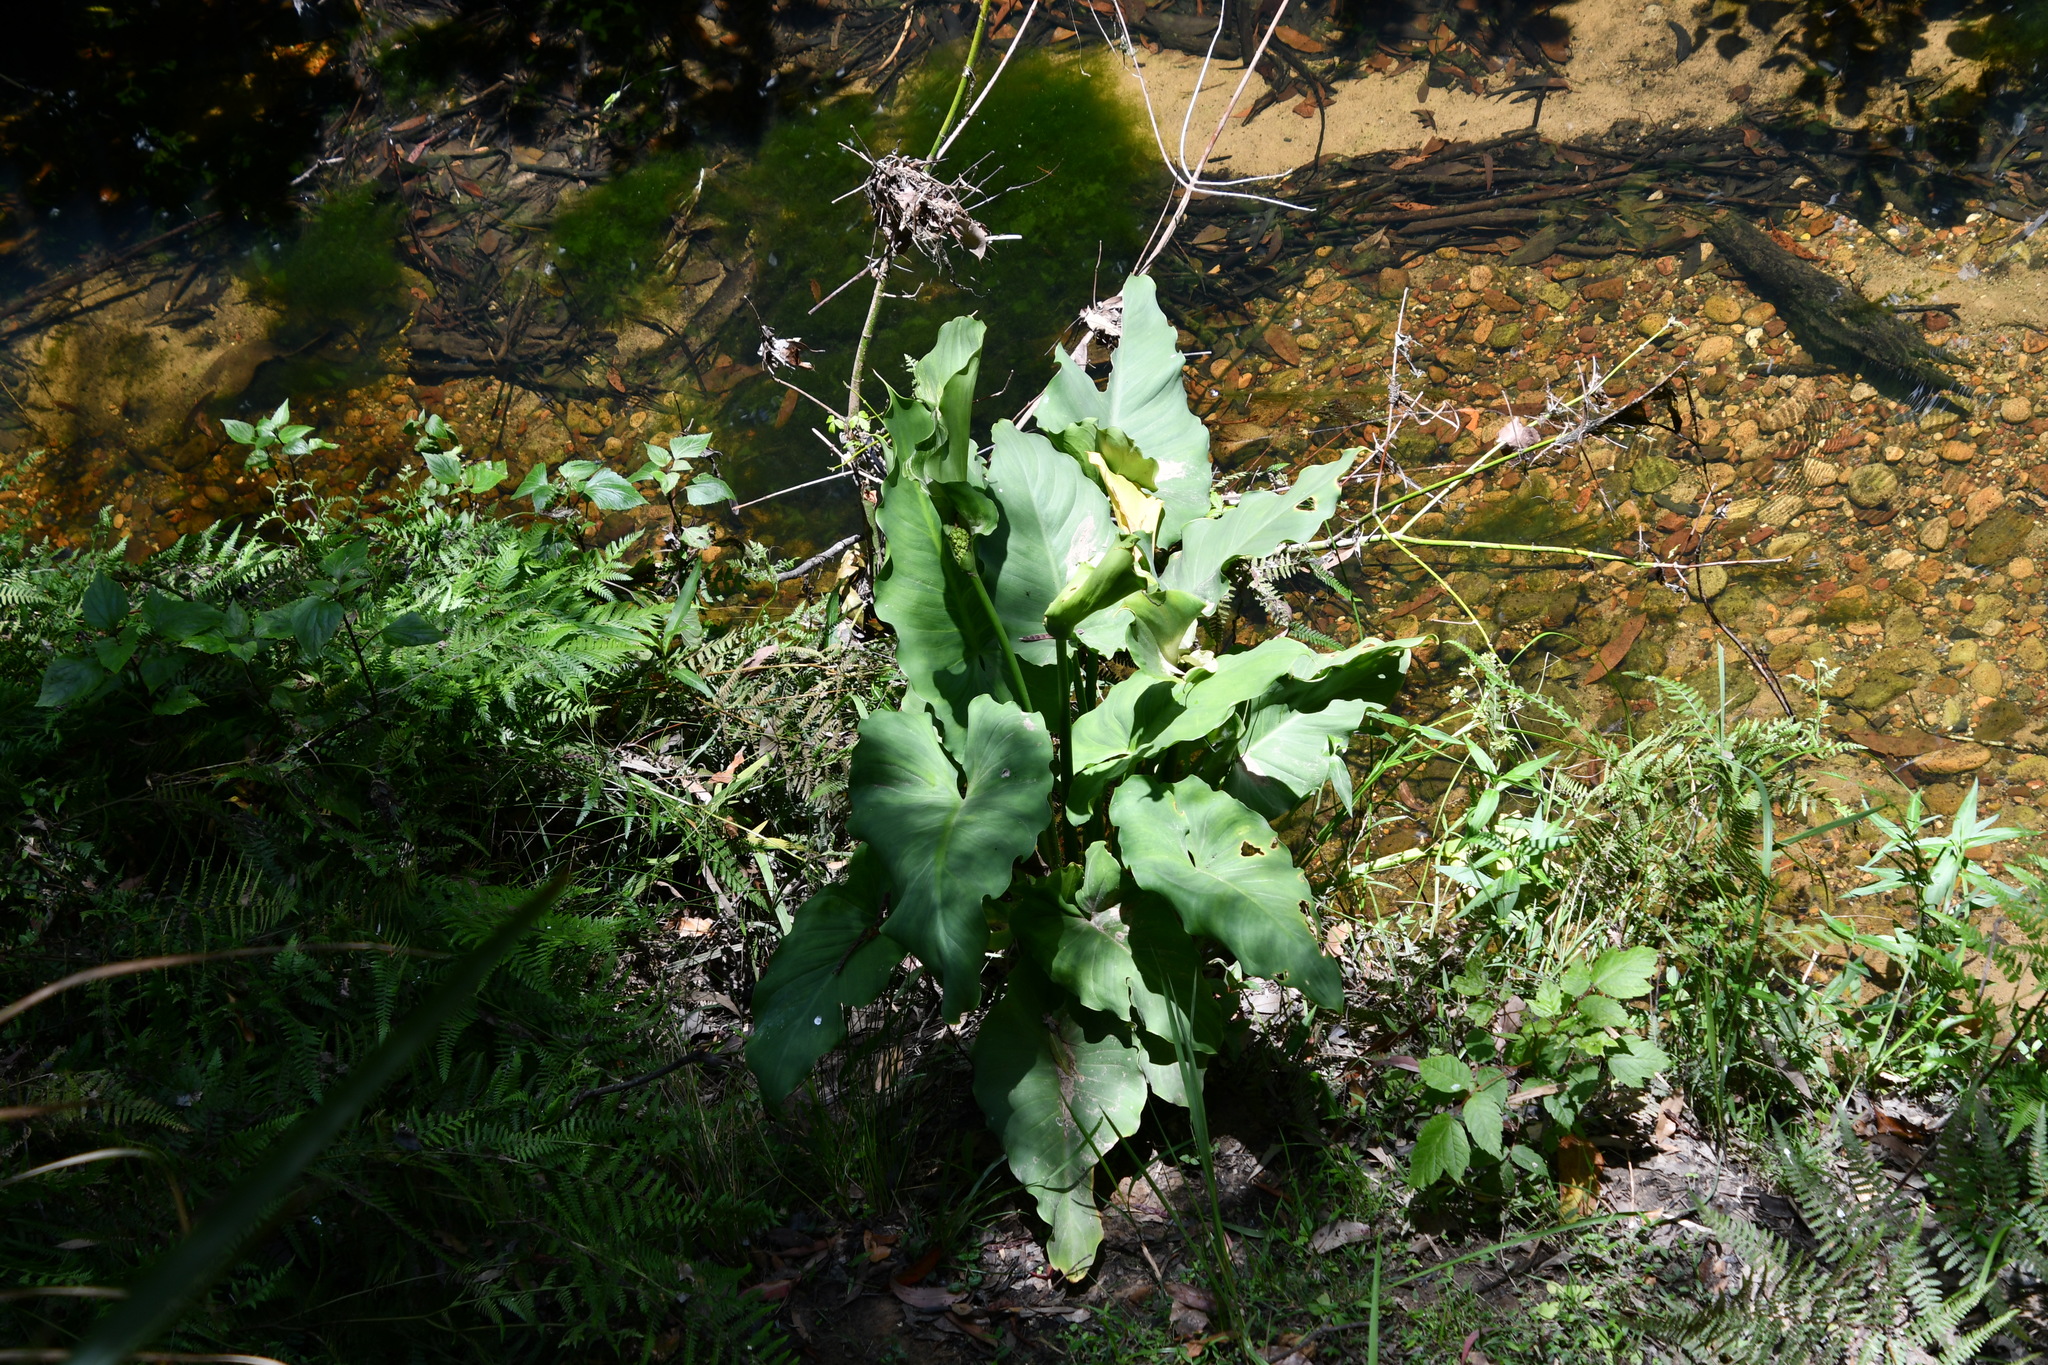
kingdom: Plantae
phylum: Tracheophyta
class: Liliopsida
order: Alismatales
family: Araceae
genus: Zantedeschia
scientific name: Zantedeschia aethiopica
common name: Altar-lily
